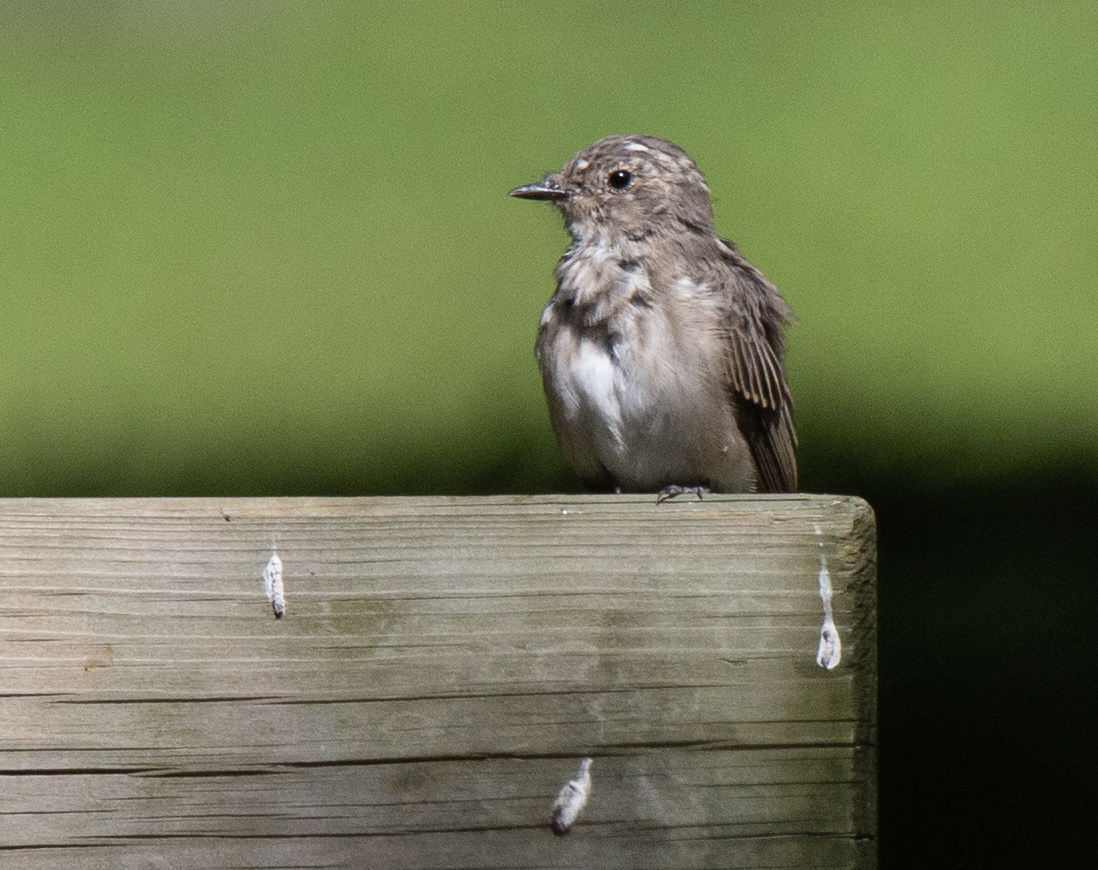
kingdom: Animalia
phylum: Chordata
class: Aves
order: Passeriformes
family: Muscicapidae
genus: Muscicapa
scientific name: Muscicapa striata
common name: Spotted flycatcher
